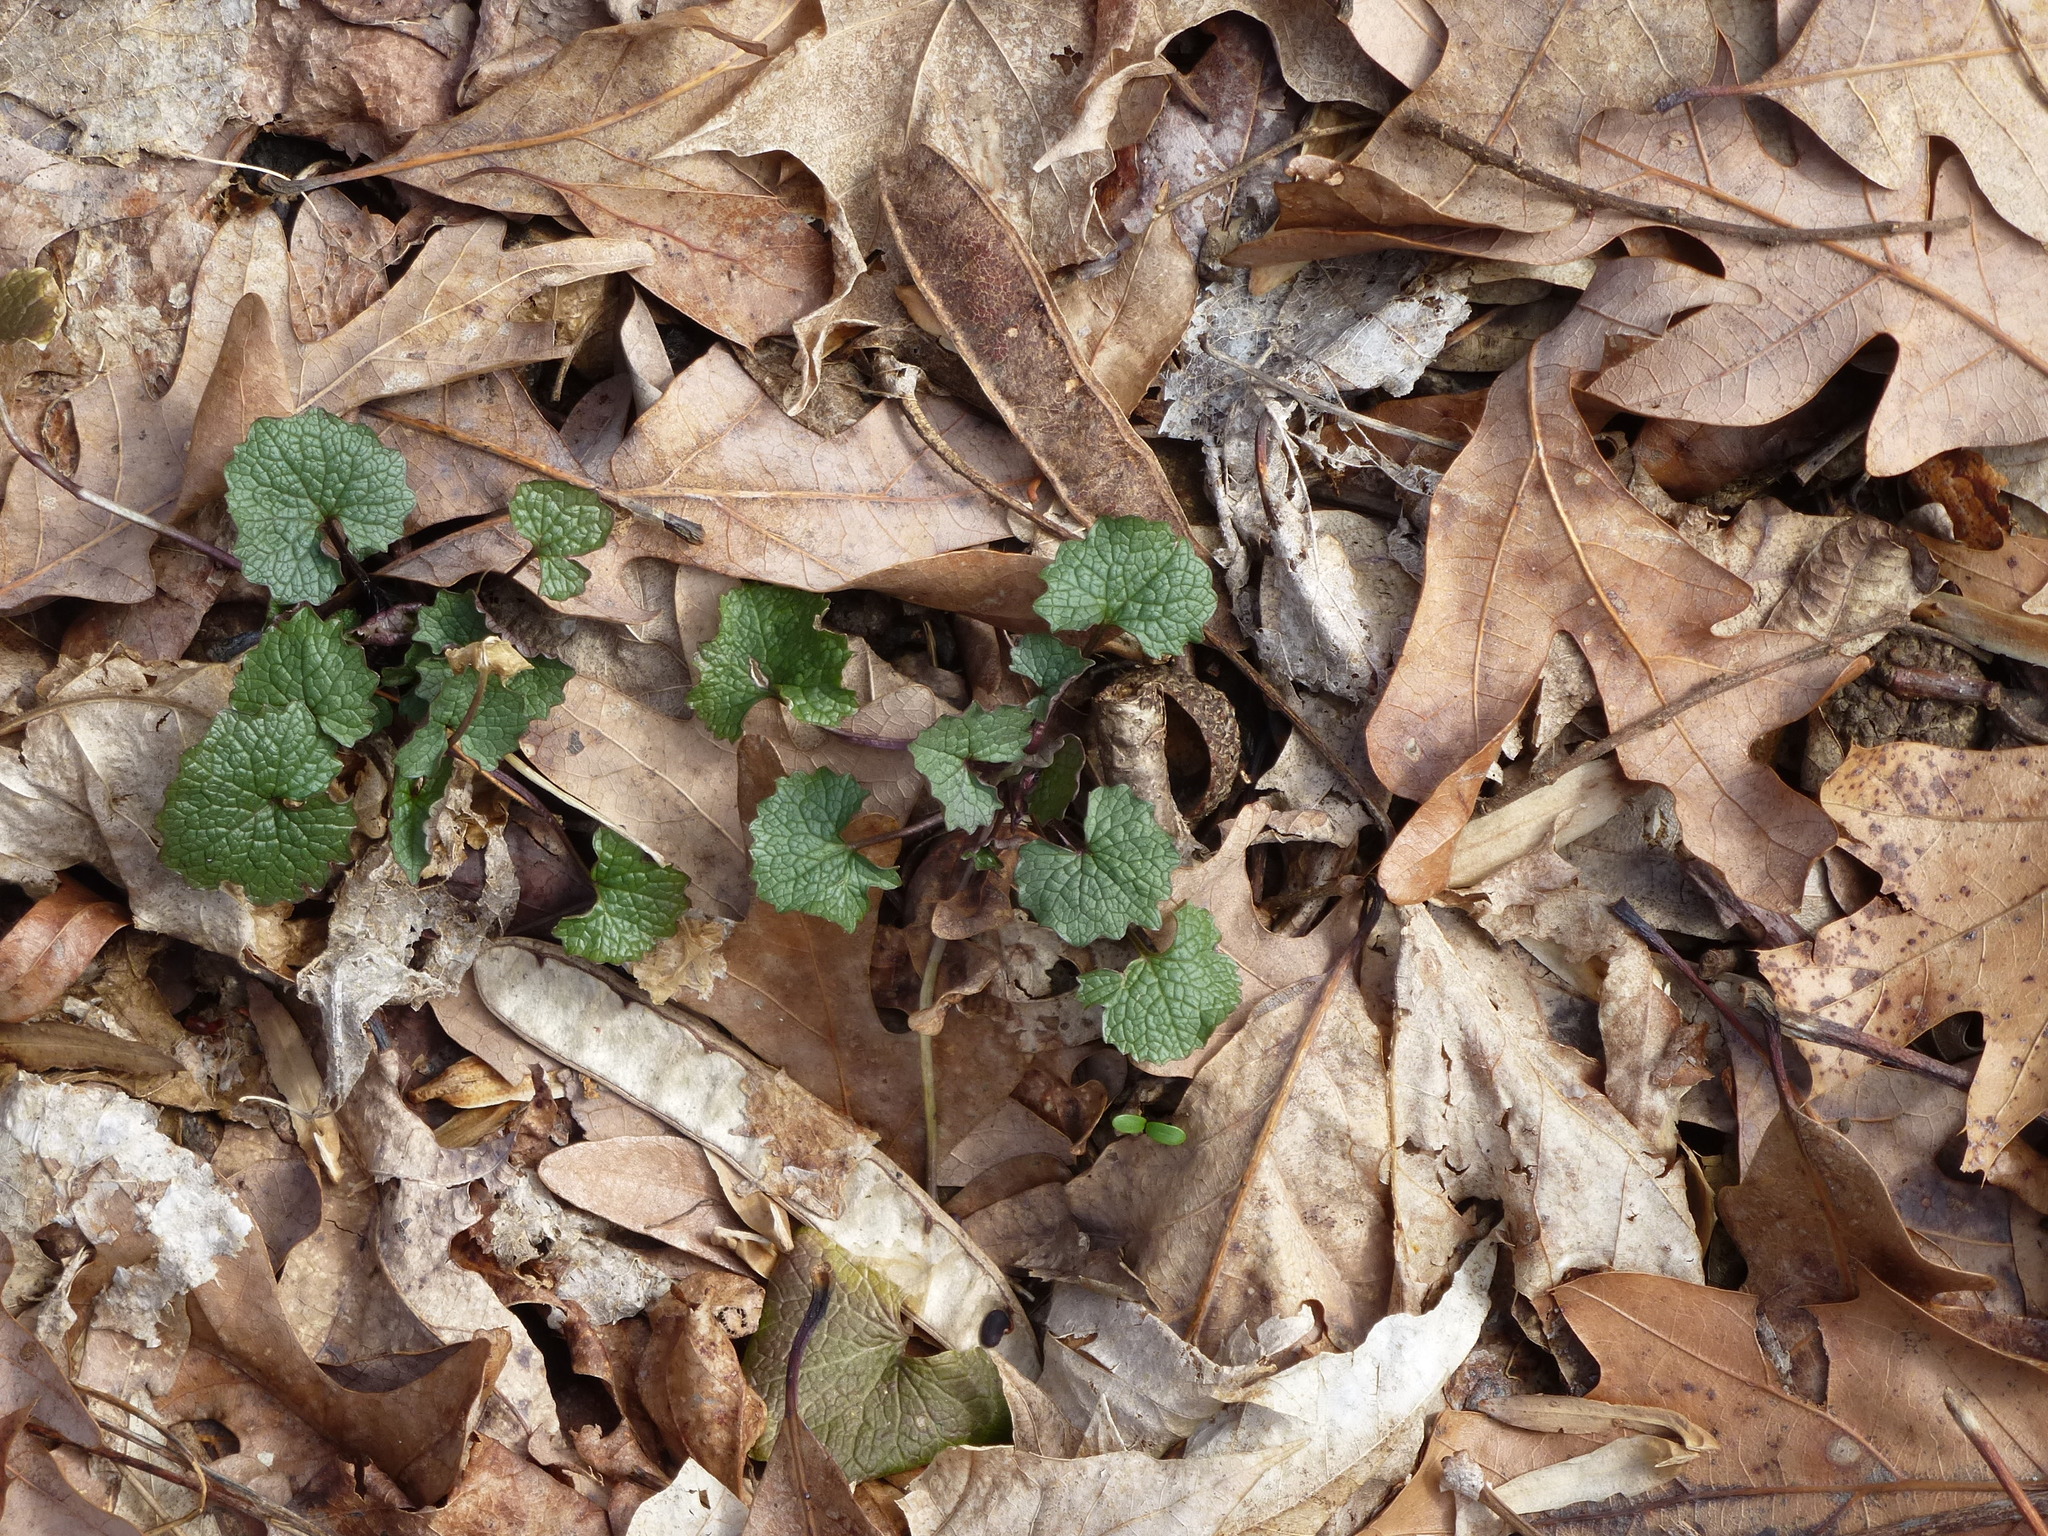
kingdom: Plantae
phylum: Tracheophyta
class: Magnoliopsida
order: Brassicales
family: Brassicaceae
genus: Alliaria
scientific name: Alliaria petiolata
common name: Garlic mustard
